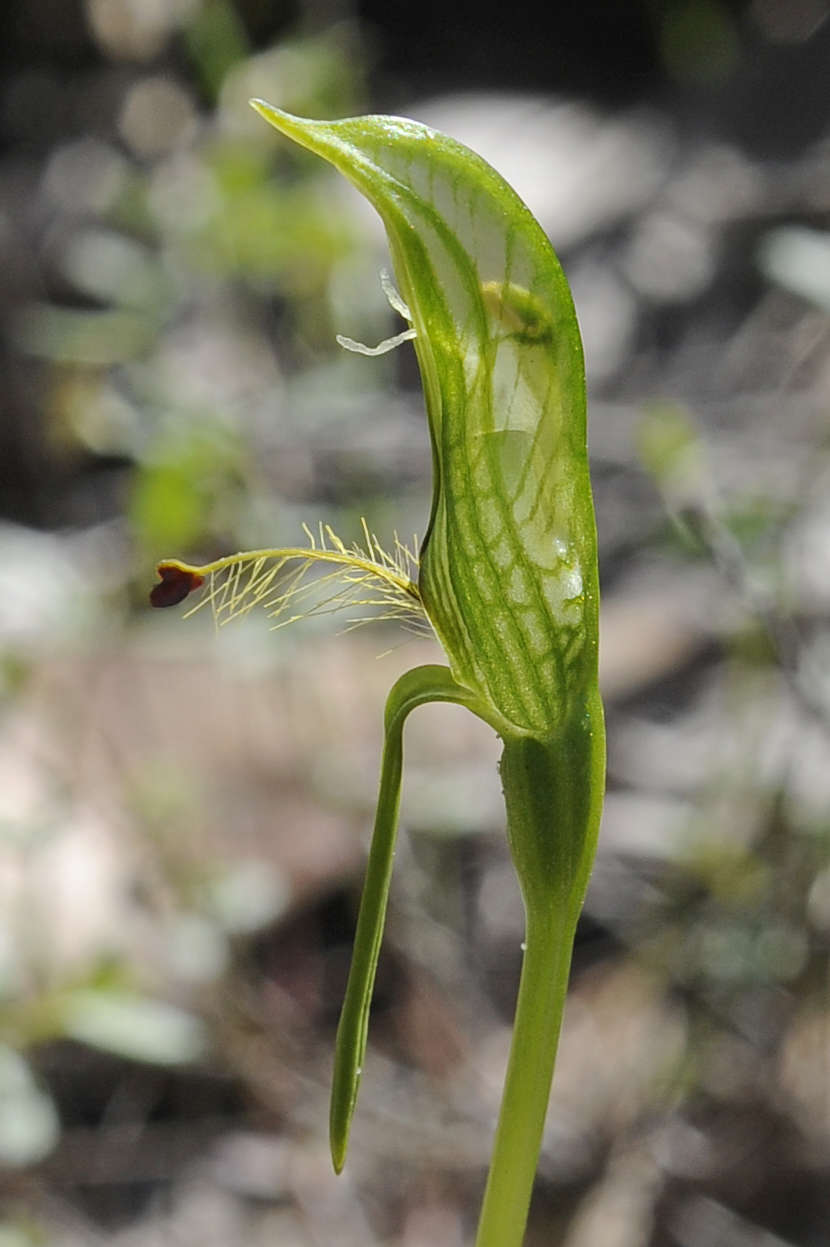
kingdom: Plantae
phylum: Tracheophyta
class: Liliopsida
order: Asparagales
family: Orchidaceae
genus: Pterostylis
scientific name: Pterostylis plumosa
